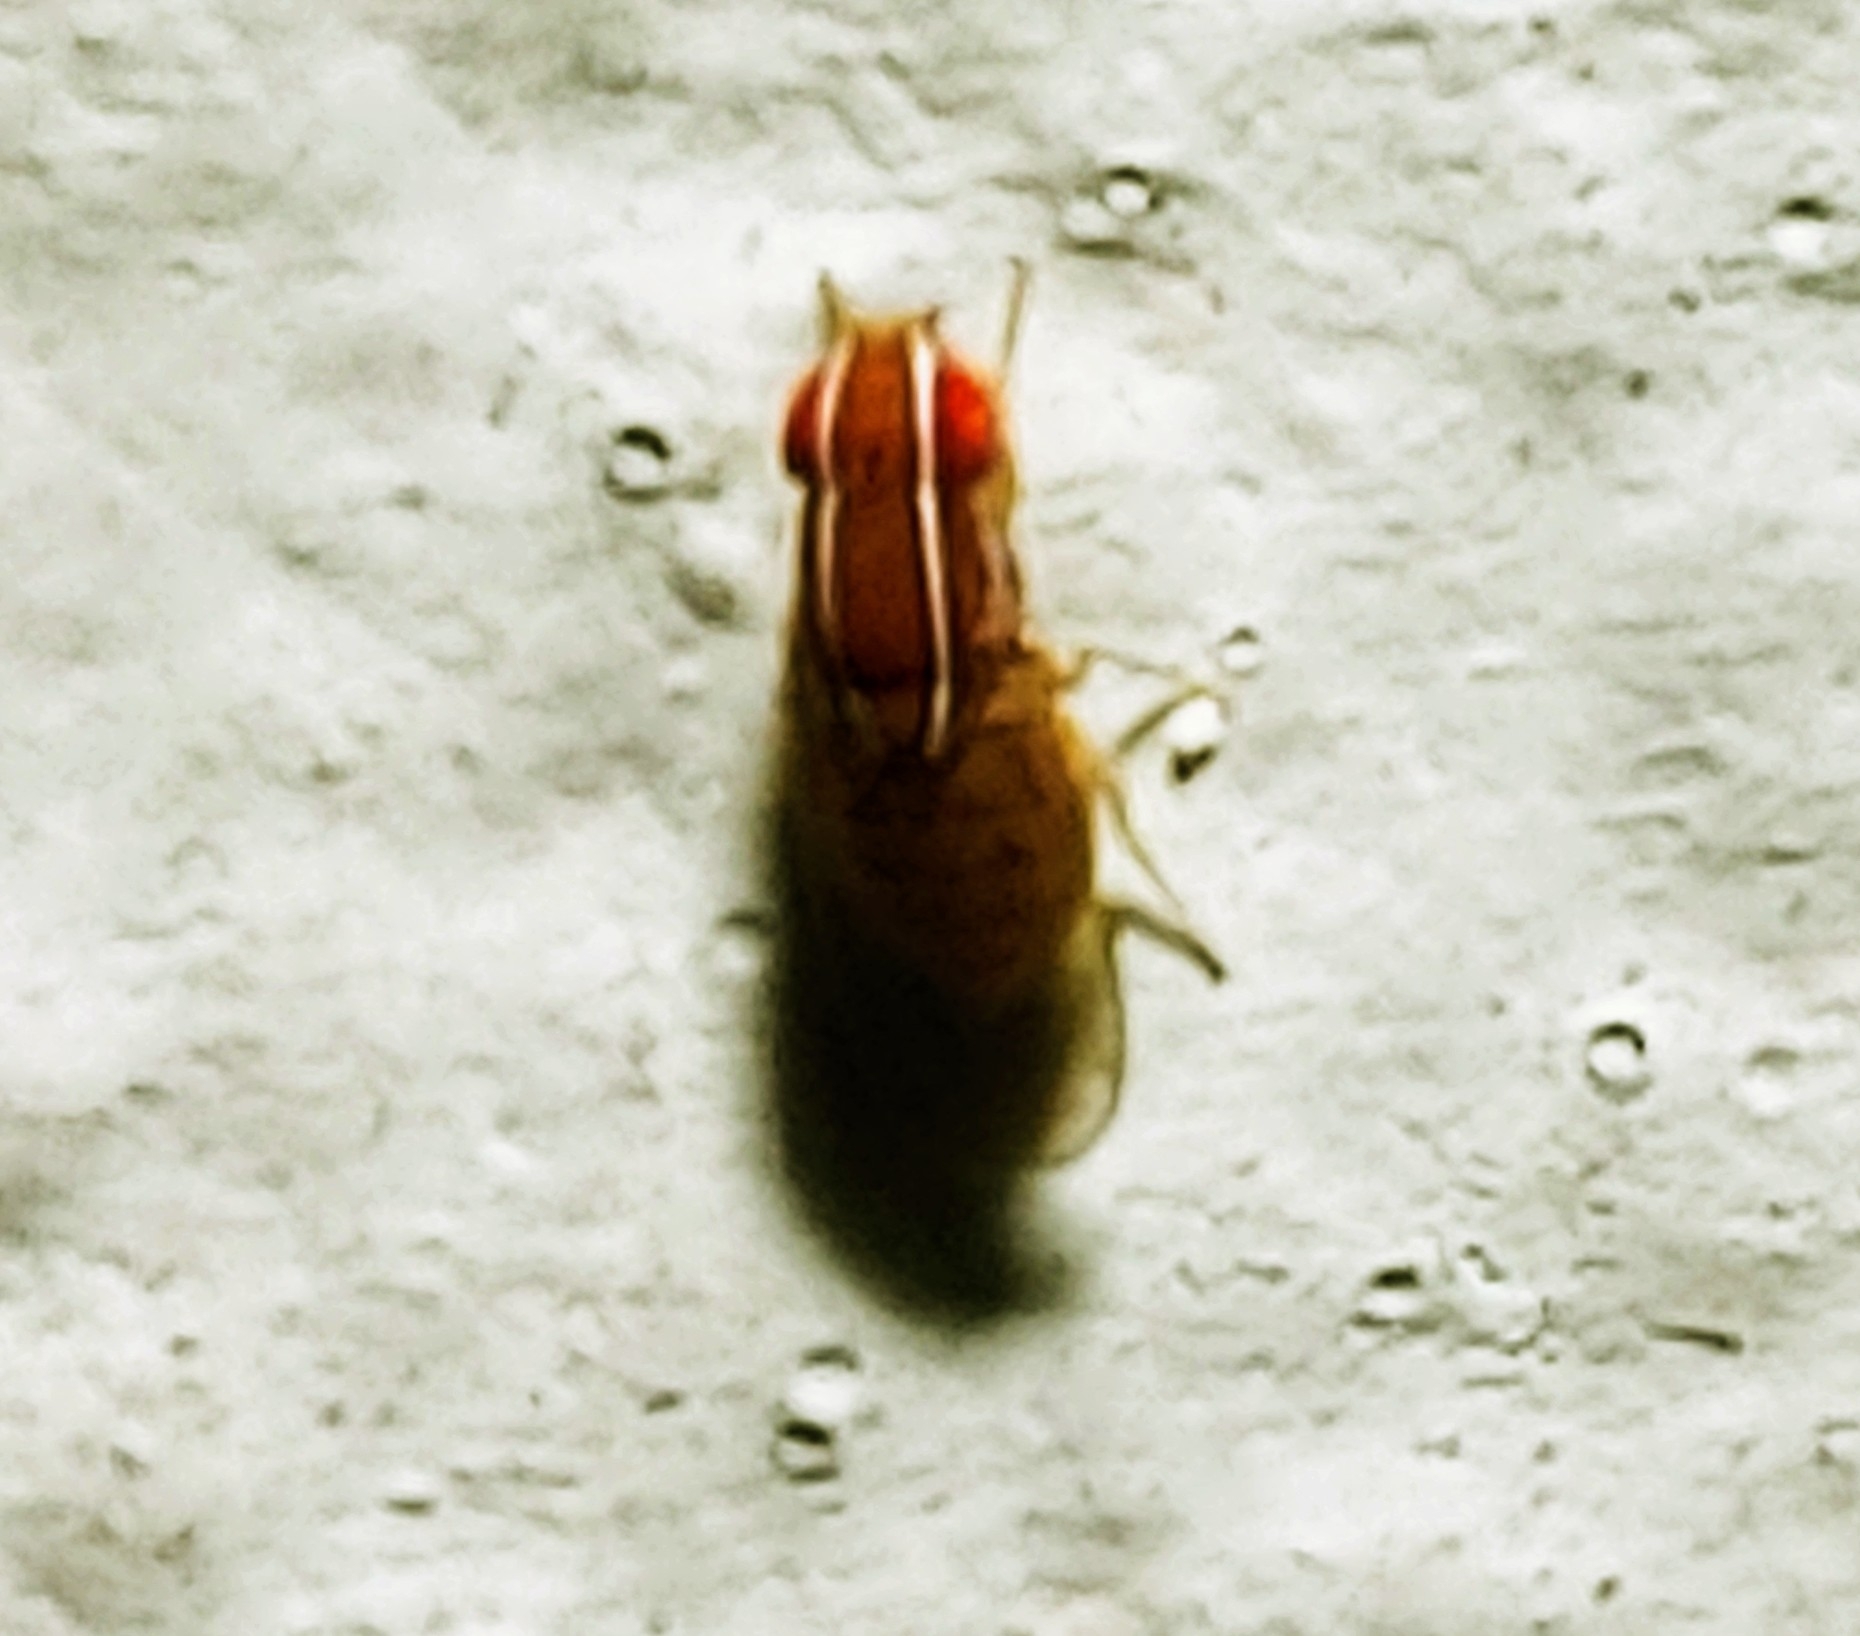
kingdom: Animalia
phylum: Arthropoda
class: Insecta
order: Diptera
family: Drosophilidae
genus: Zaprionus
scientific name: Zaprionus indianus
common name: African fig fly
